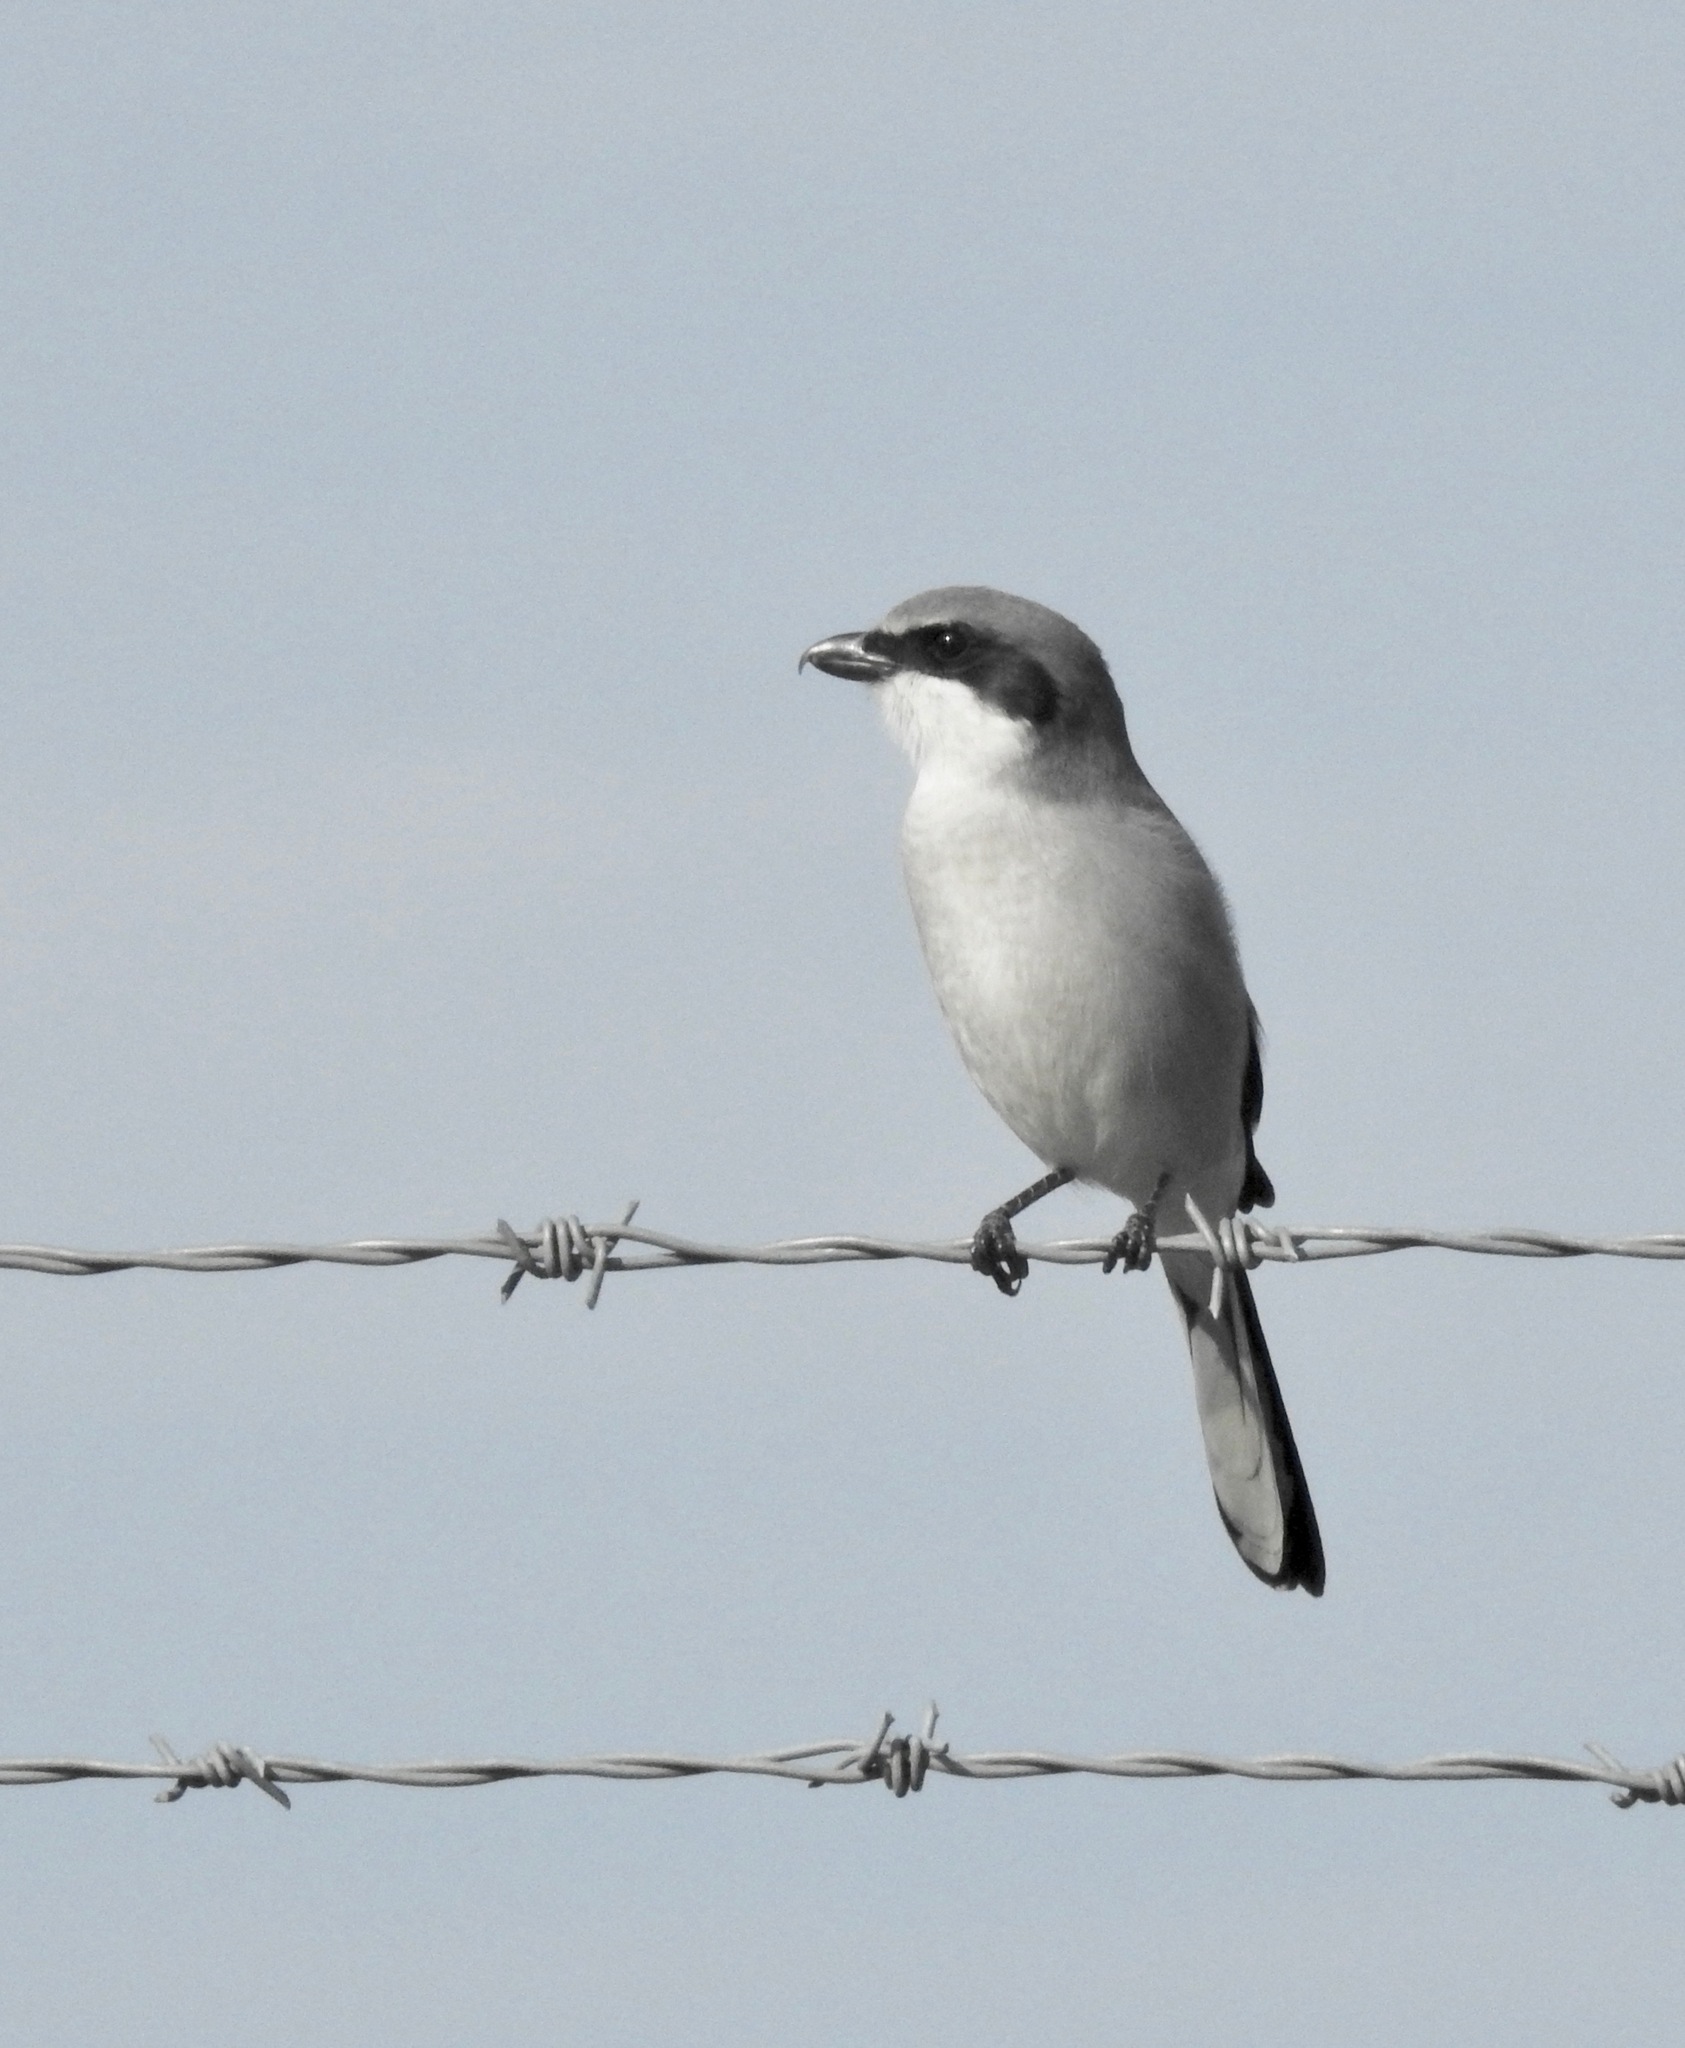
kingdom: Animalia
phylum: Chordata
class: Aves
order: Passeriformes
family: Laniidae
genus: Lanius
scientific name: Lanius ludovicianus
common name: Loggerhead shrike
